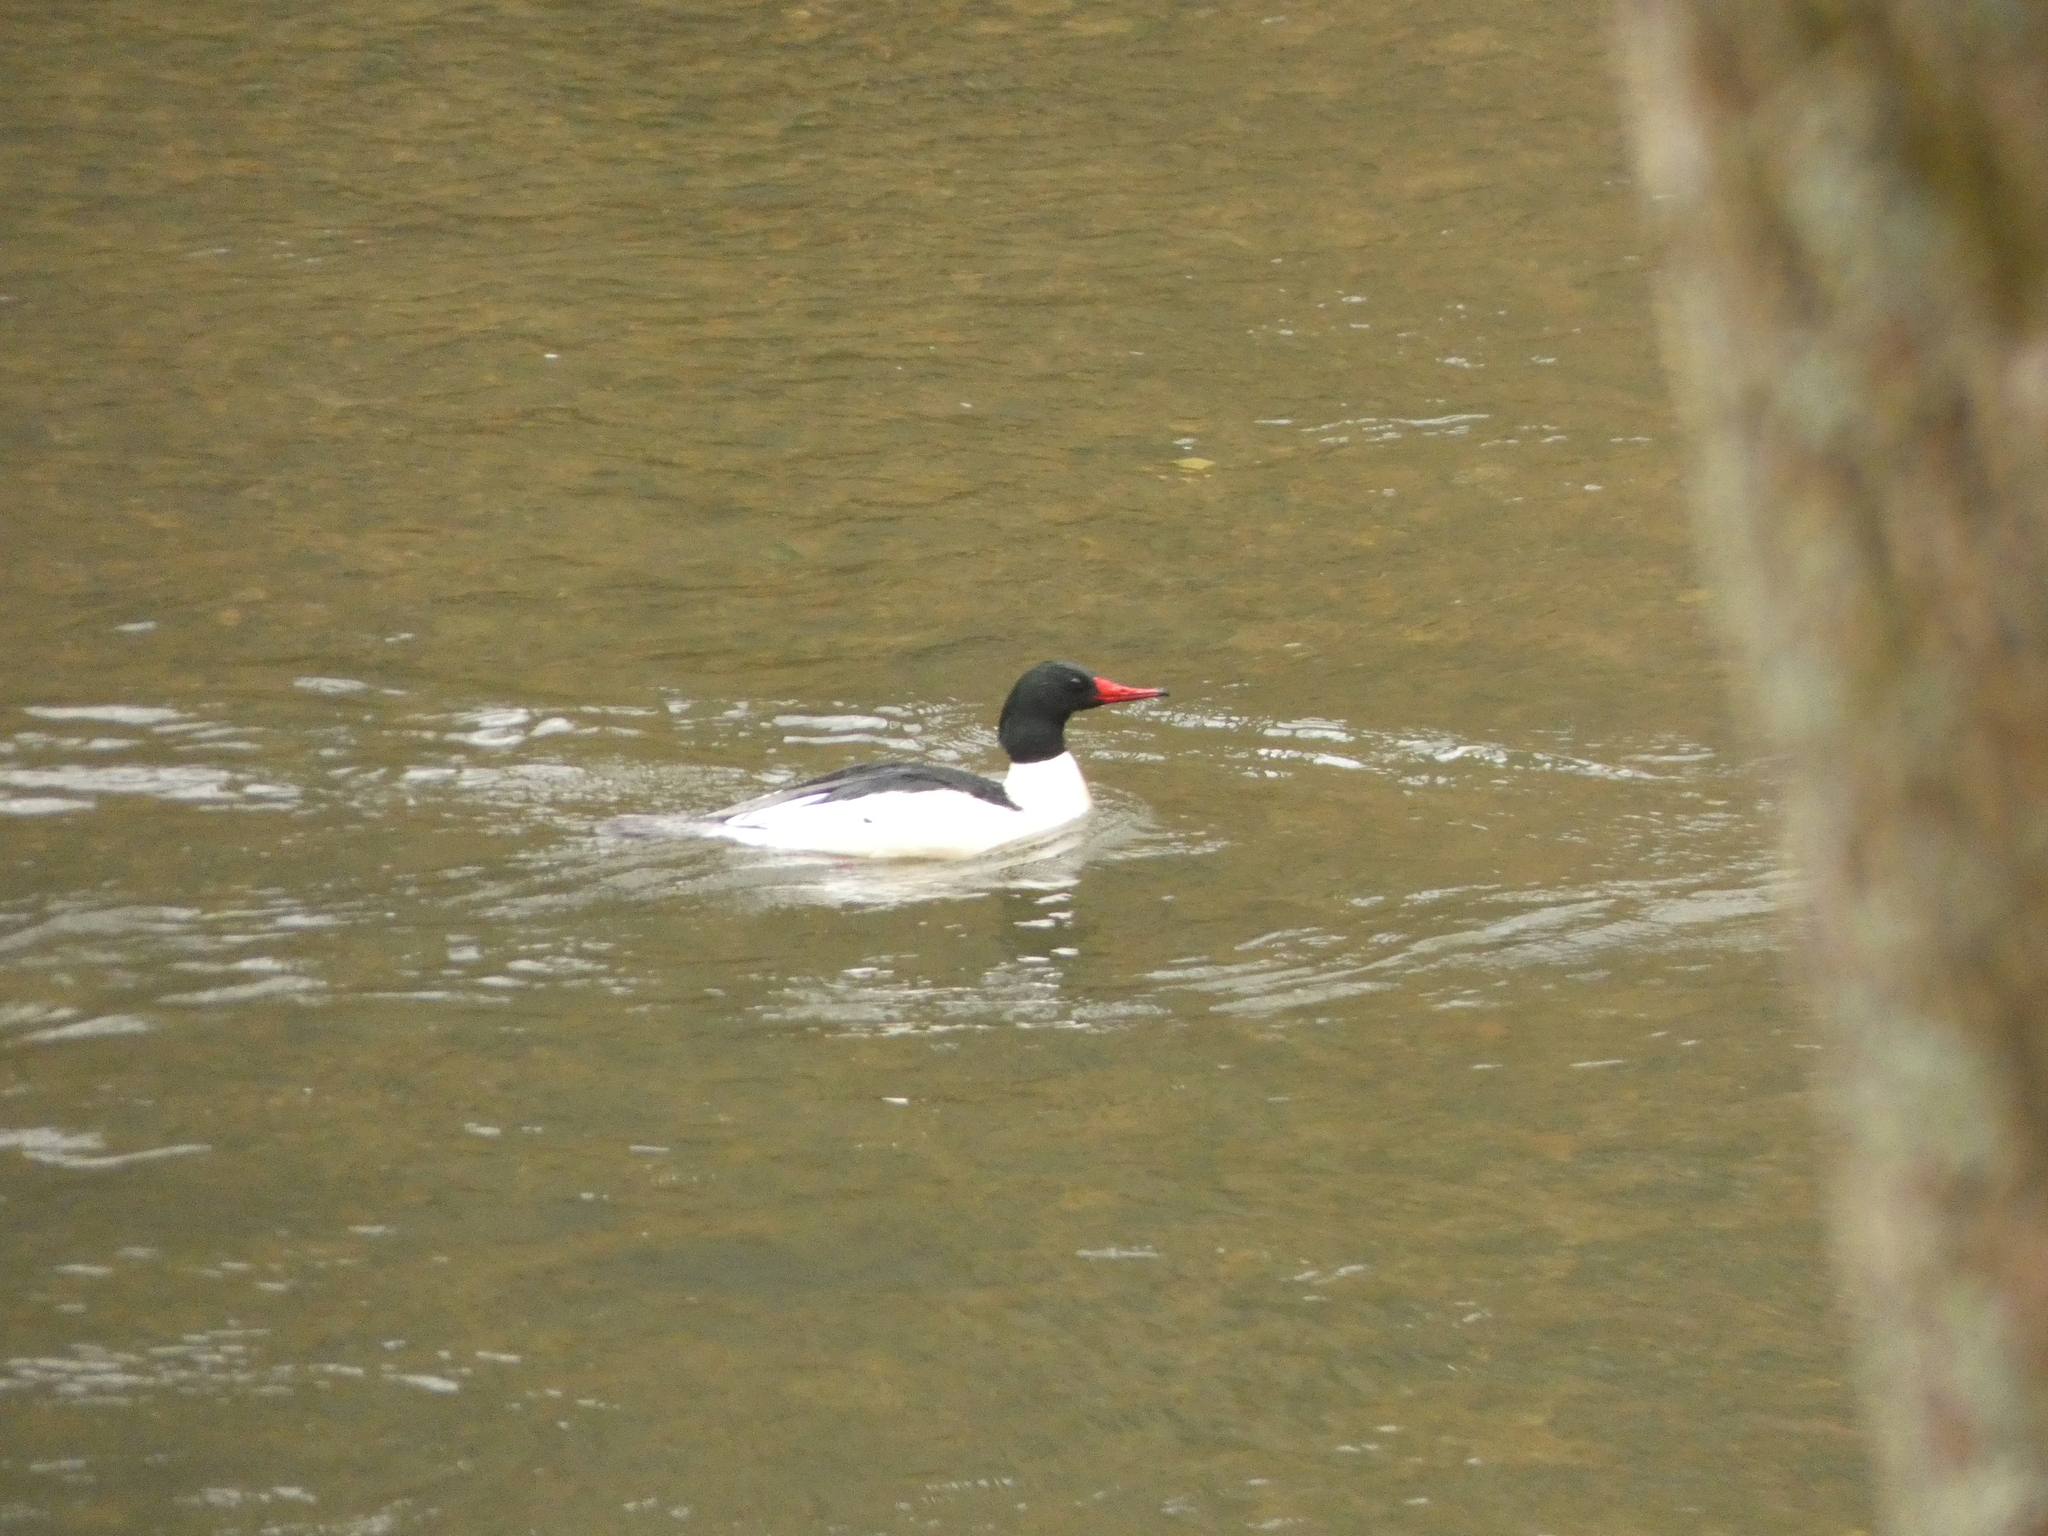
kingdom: Animalia
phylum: Chordata
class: Aves
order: Anseriformes
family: Anatidae
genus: Mergus
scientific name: Mergus merganser
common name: Common merganser
